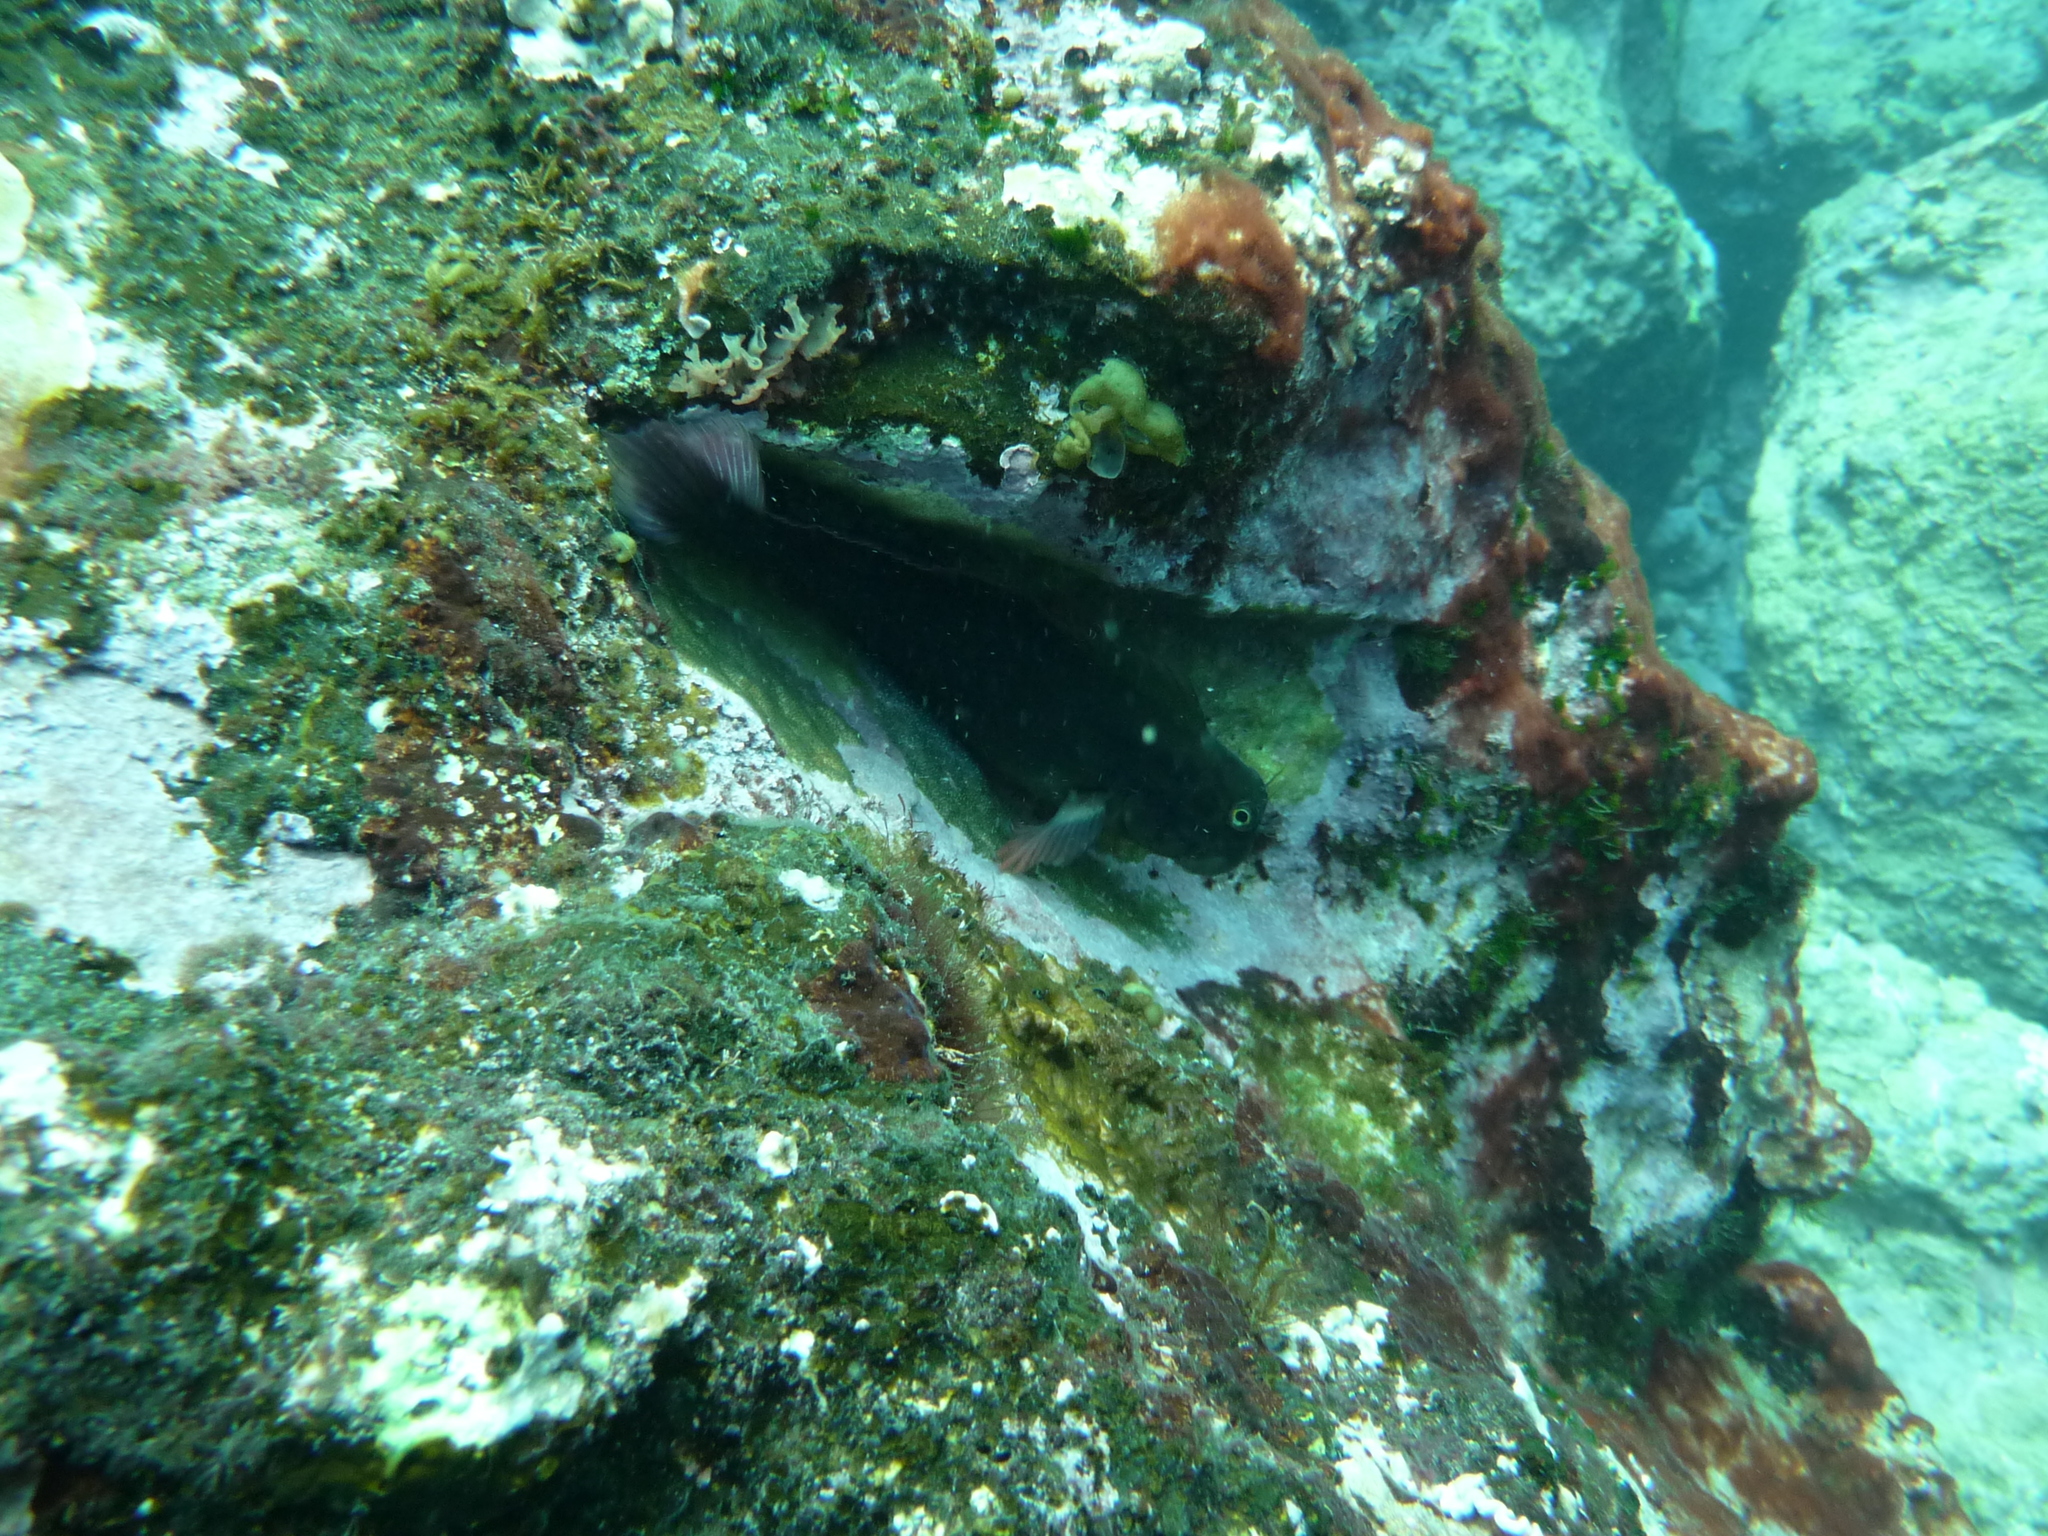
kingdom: Animalia
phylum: Chordata
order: Perciformes
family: Blenniidae
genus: Ophioblennius
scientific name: Ophioblennius atlanticus
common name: Redlip blenny
